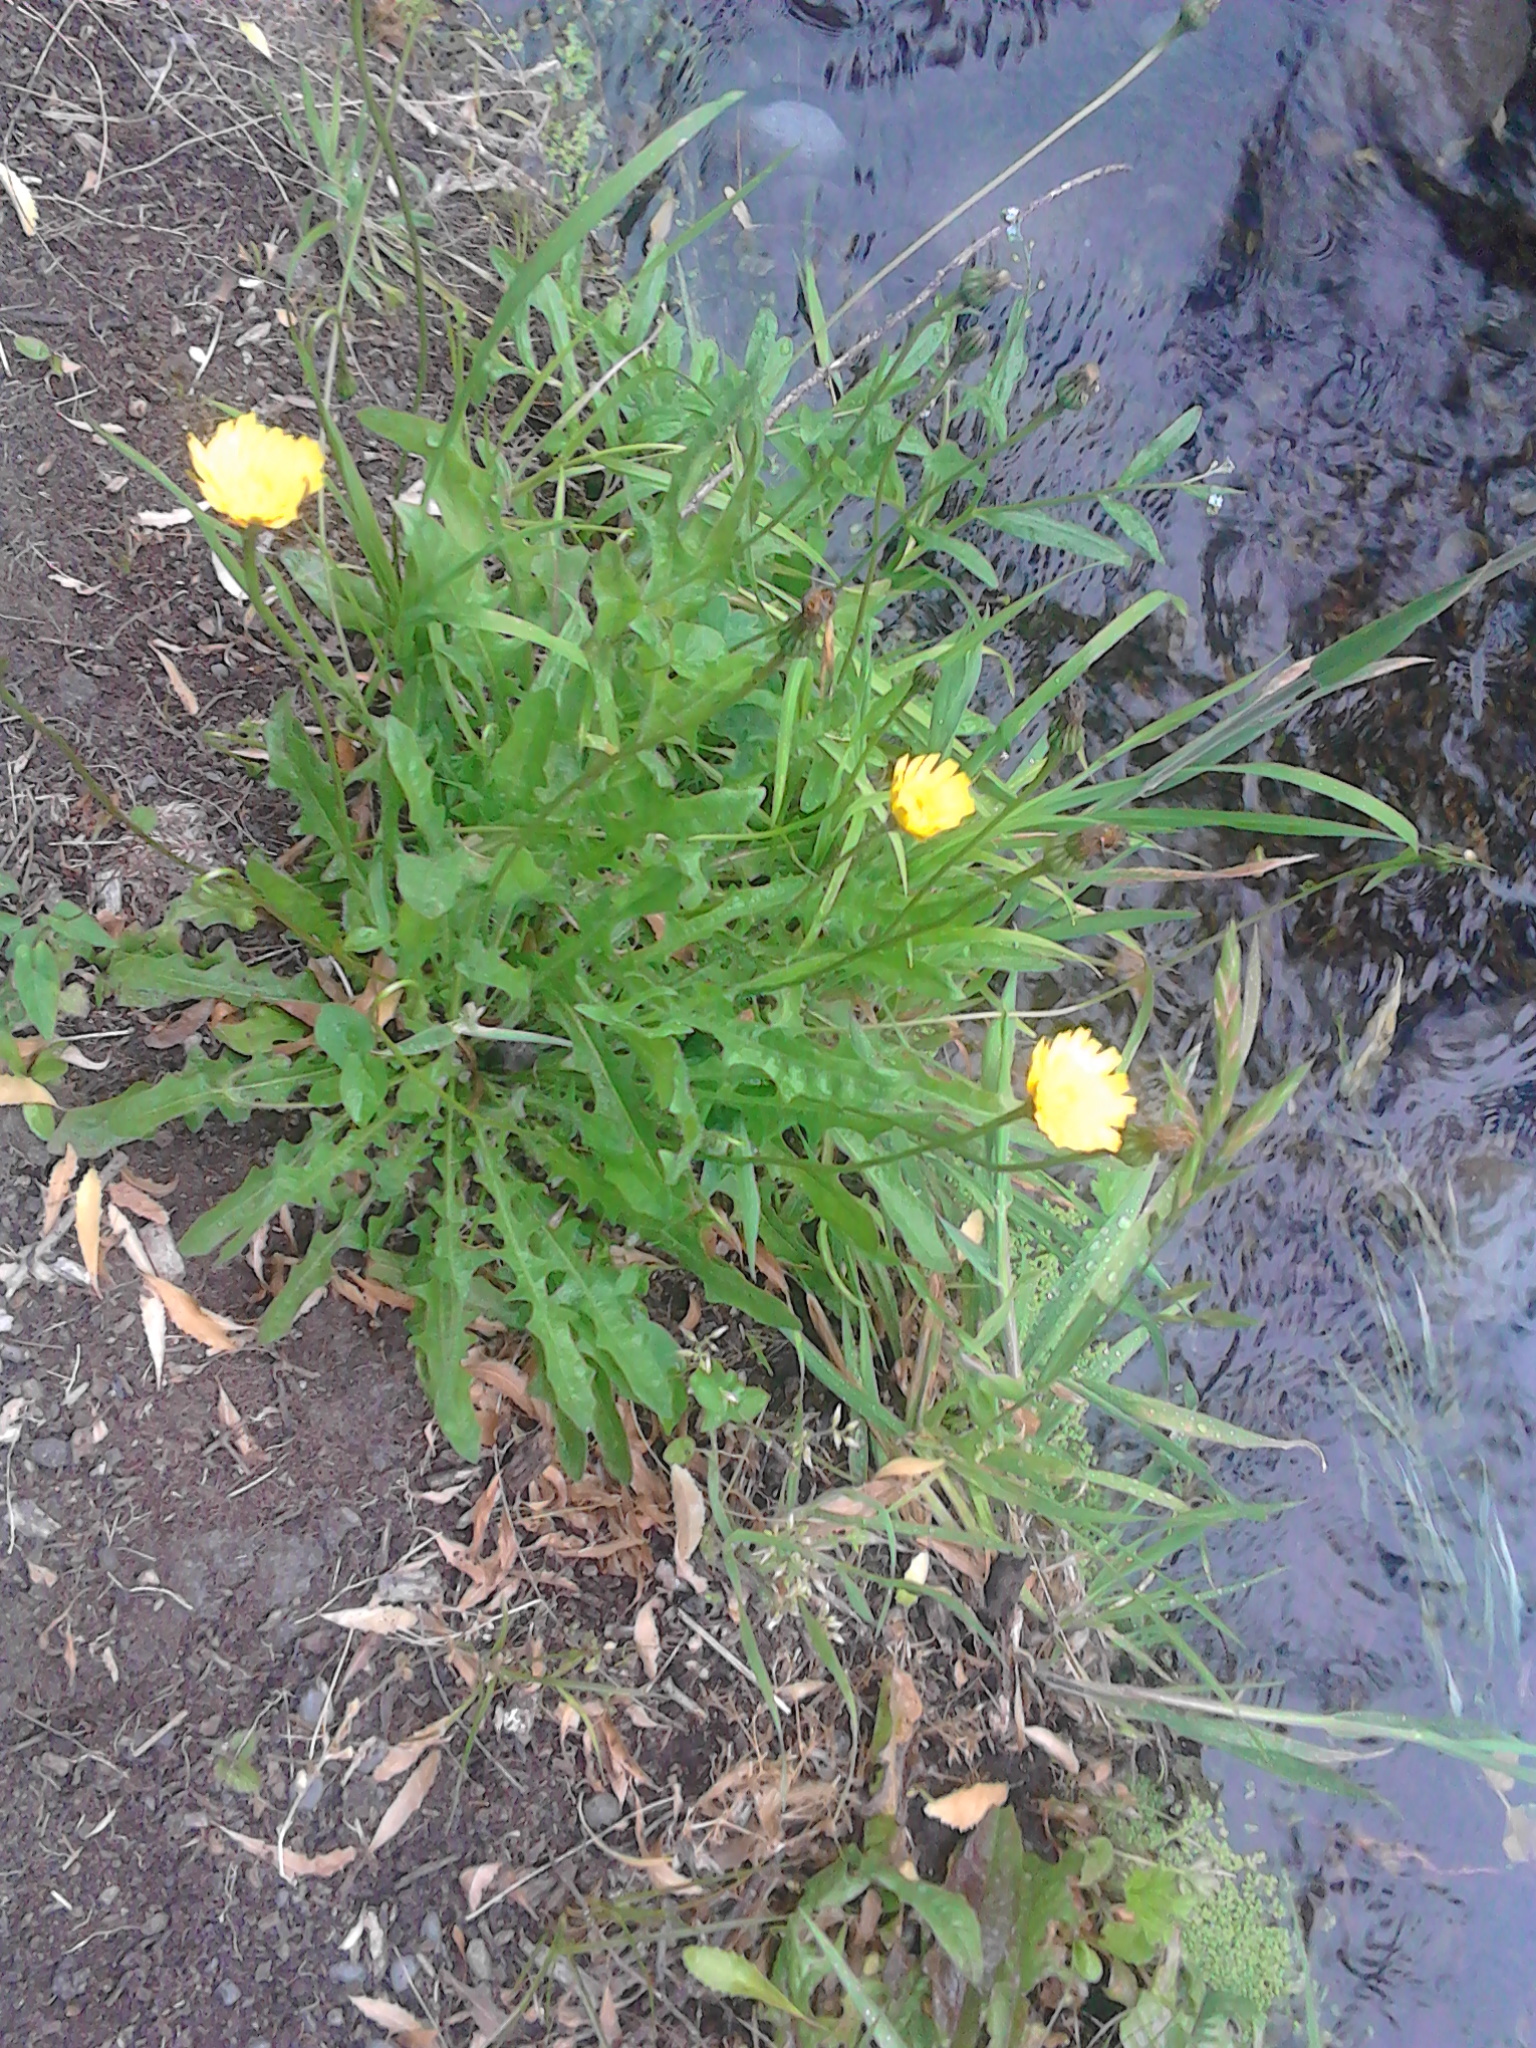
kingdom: Plantae
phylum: Tracheophyta
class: Magnoliopsida
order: Asterales
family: Asteraceae
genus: Thrincia
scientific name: Thrincia saxatilis
